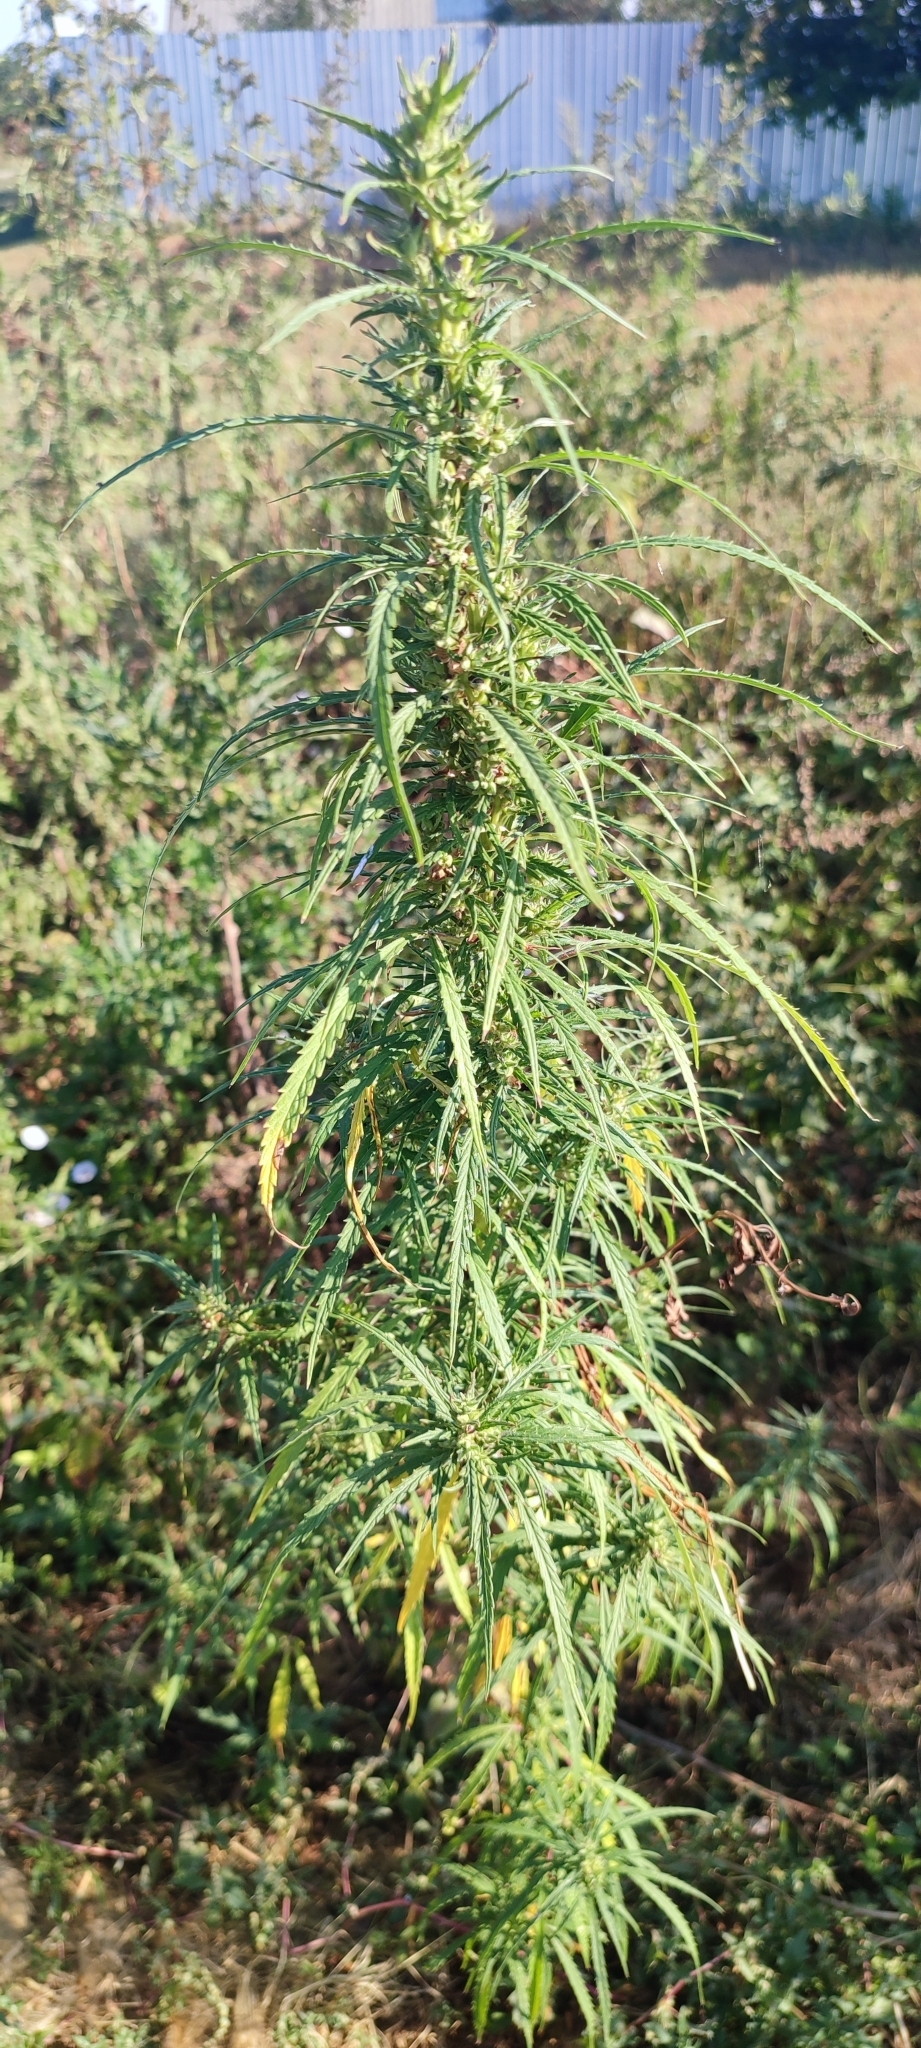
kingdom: Plantae
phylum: Tracheophyta
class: Magnoliopsida
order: Rosales
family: Cannabaceae
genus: Cannabis
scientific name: Cannabis sativa
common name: Hemp
